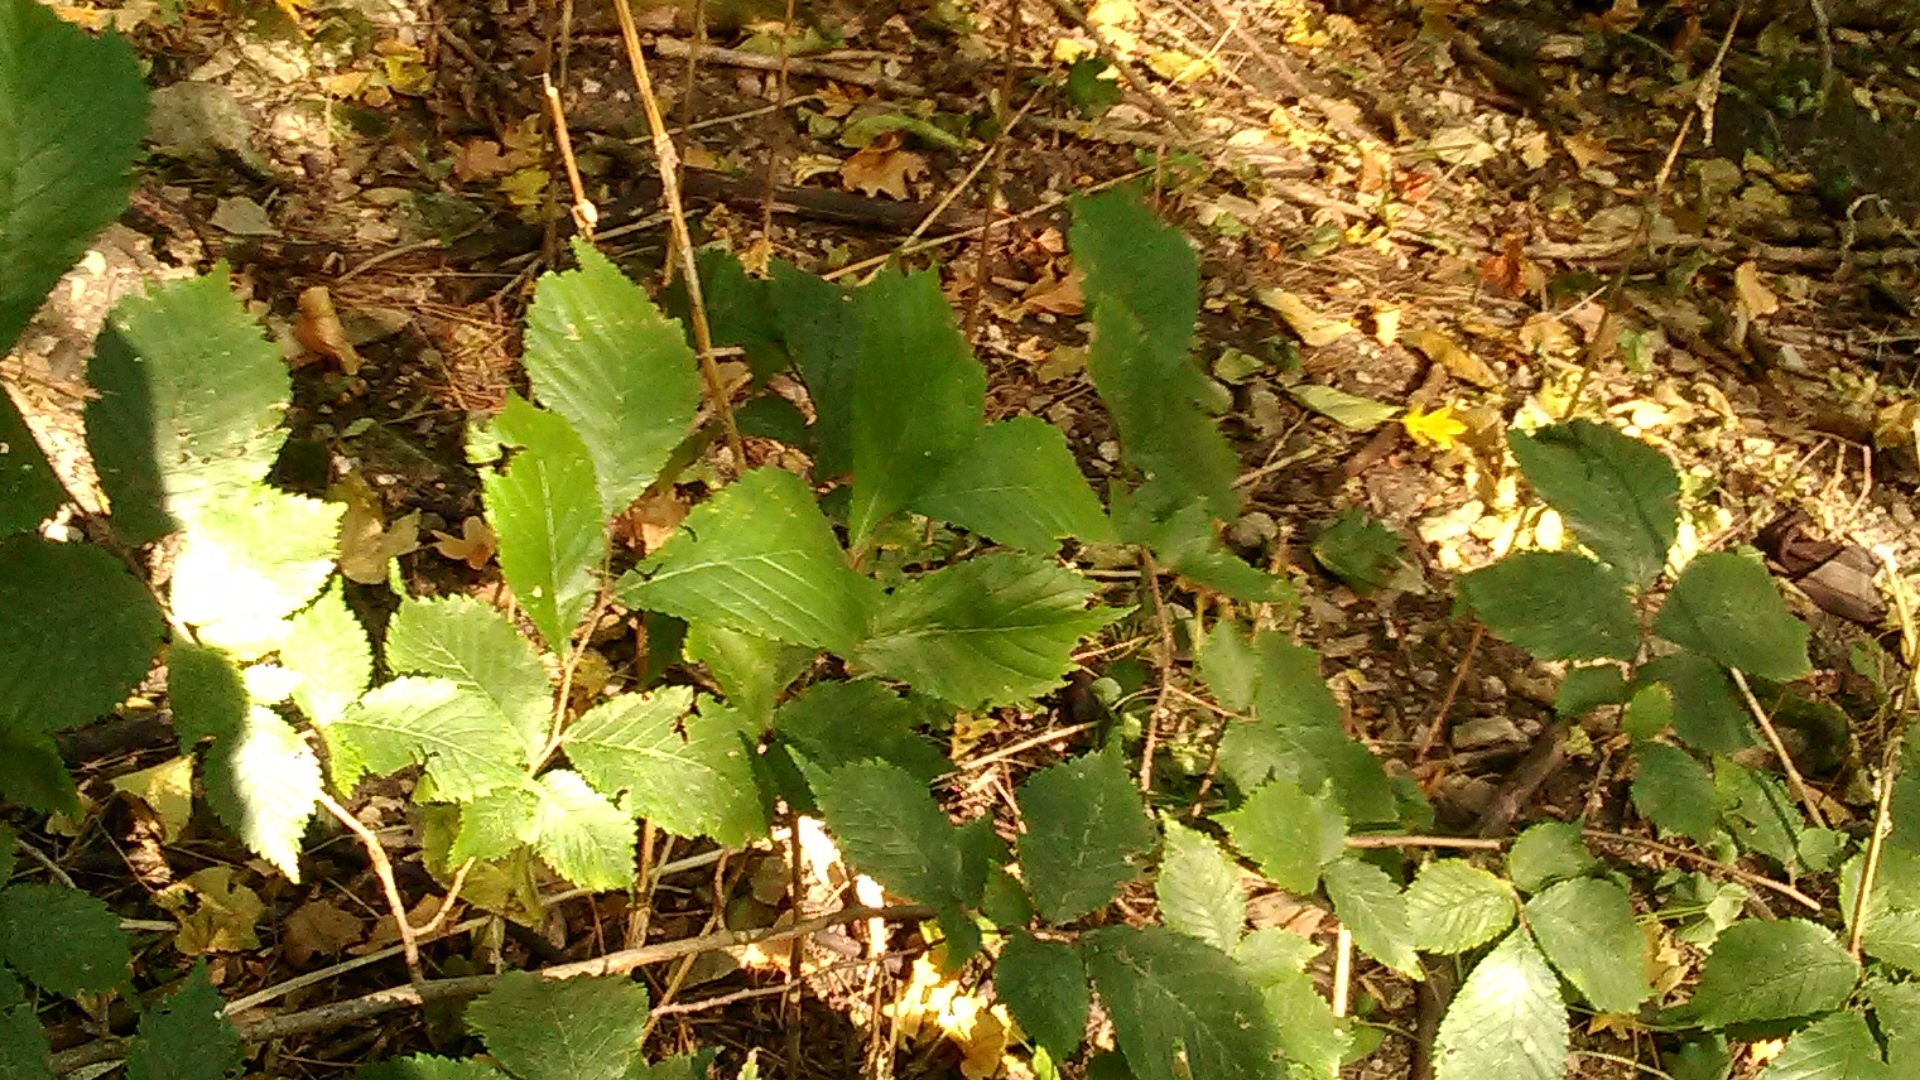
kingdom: Plantae
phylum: Tracheophyta
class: Magnoliopsida
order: Rosales
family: Ulmaceae
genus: Ulmus
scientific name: Ulmus glabra
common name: Wych elm
